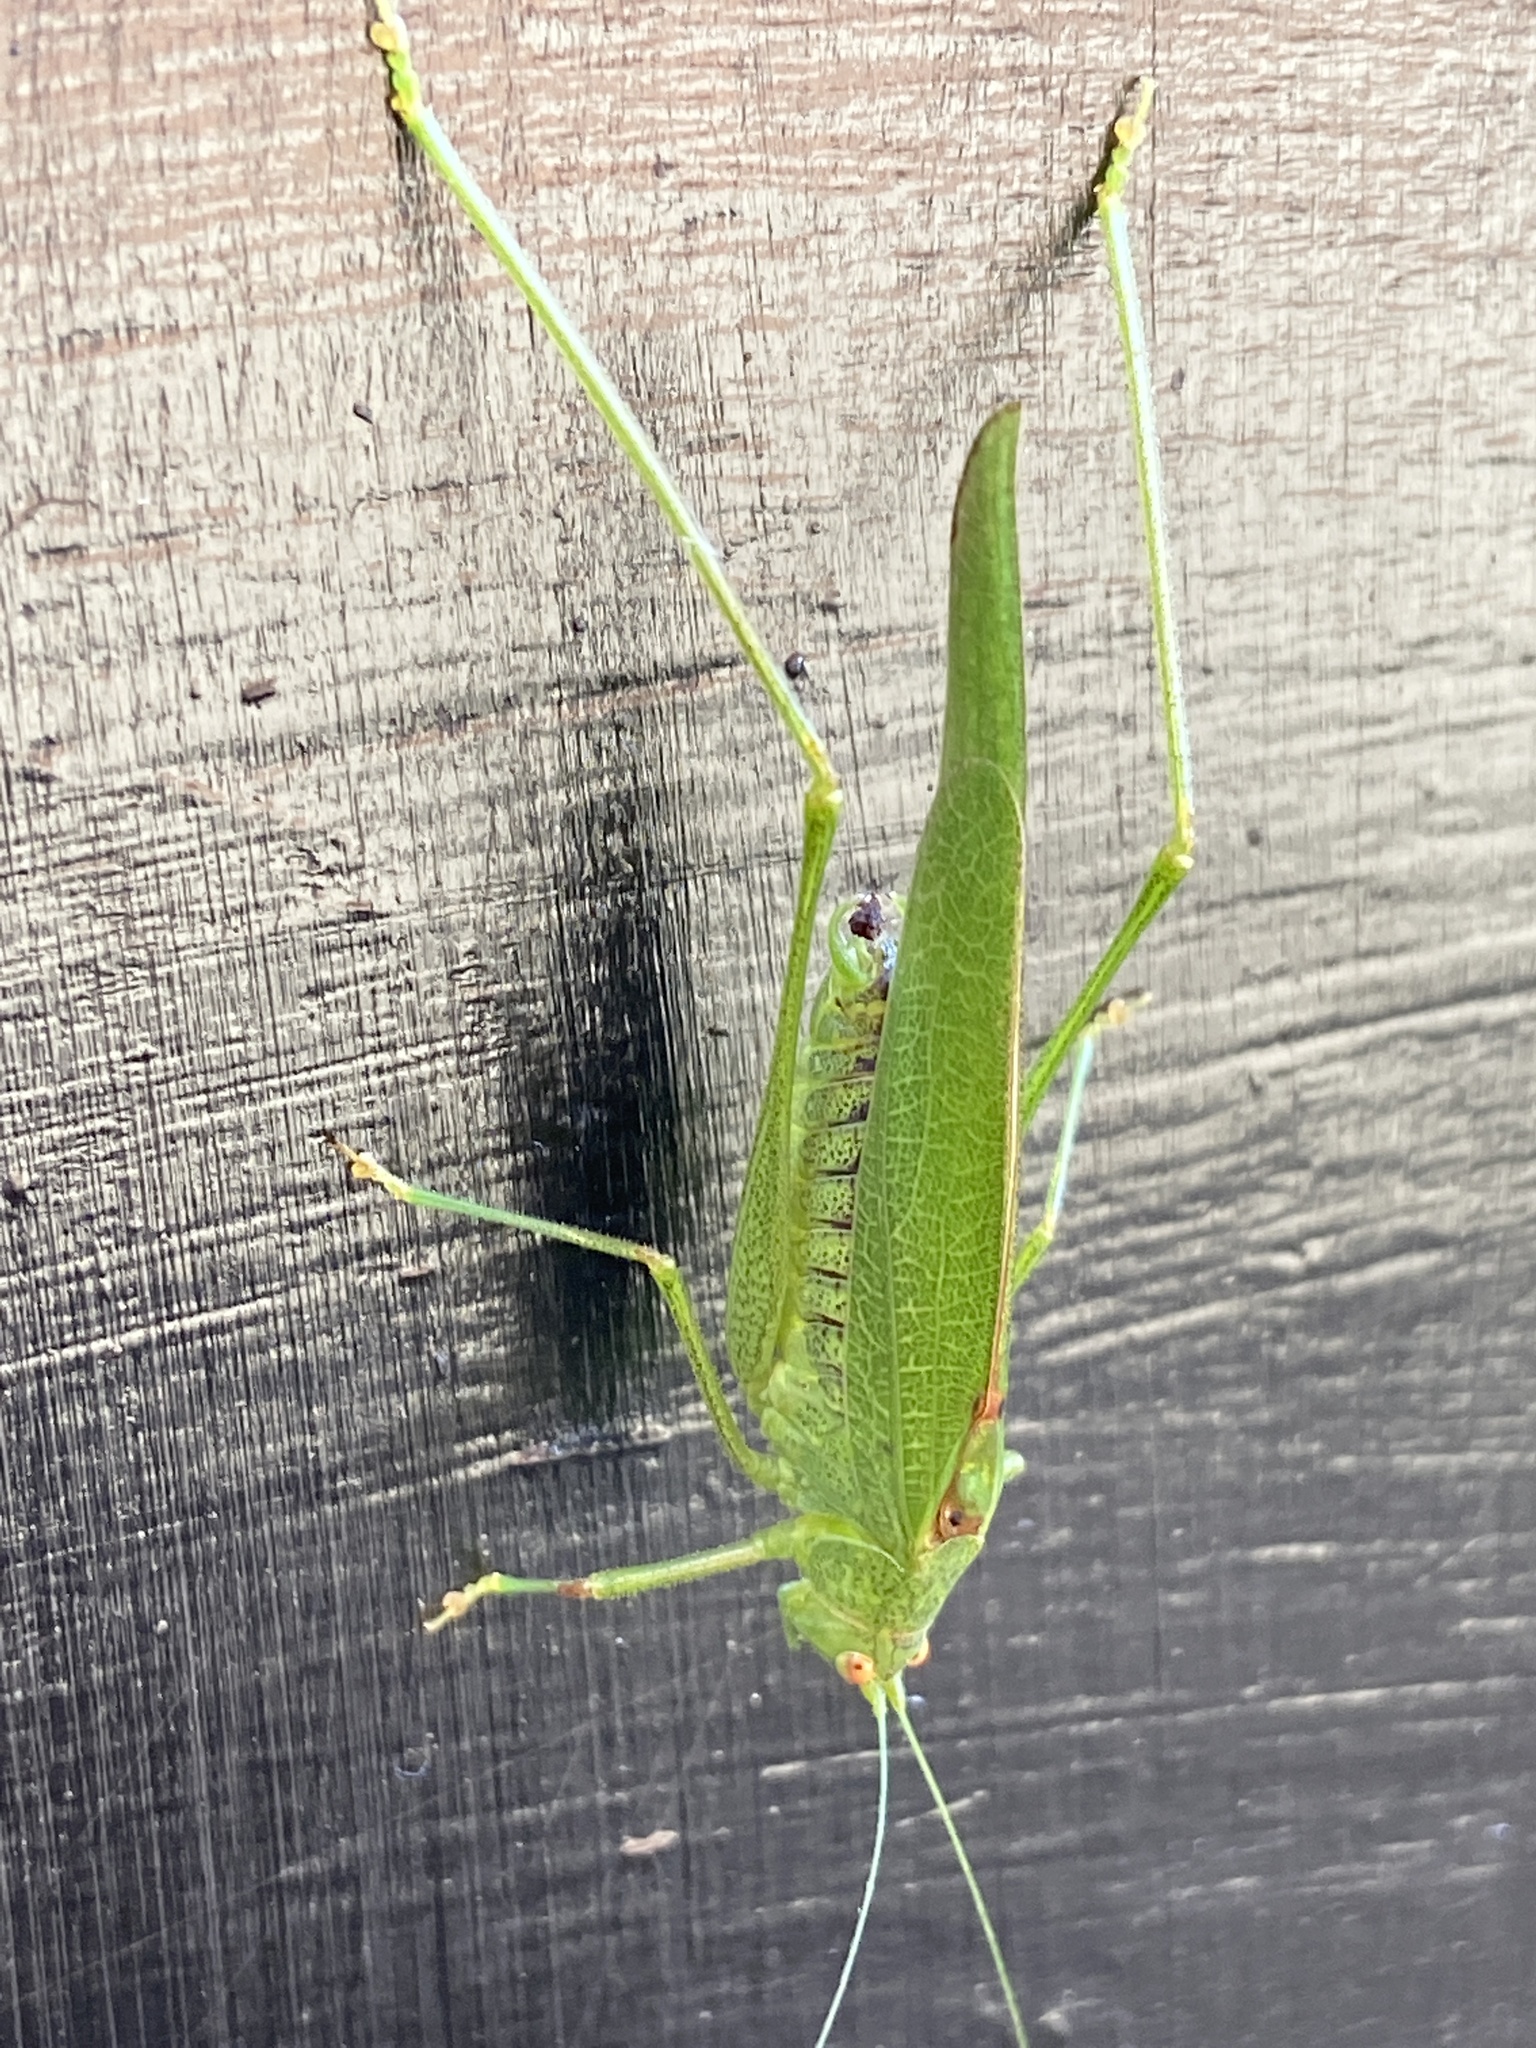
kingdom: Animalia
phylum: Arthropoda
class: Insecta
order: Orthoptera
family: Tettigoniidae
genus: Phaneroptera
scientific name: Phaneroptera nana
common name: Southern sickle bush-cricket
